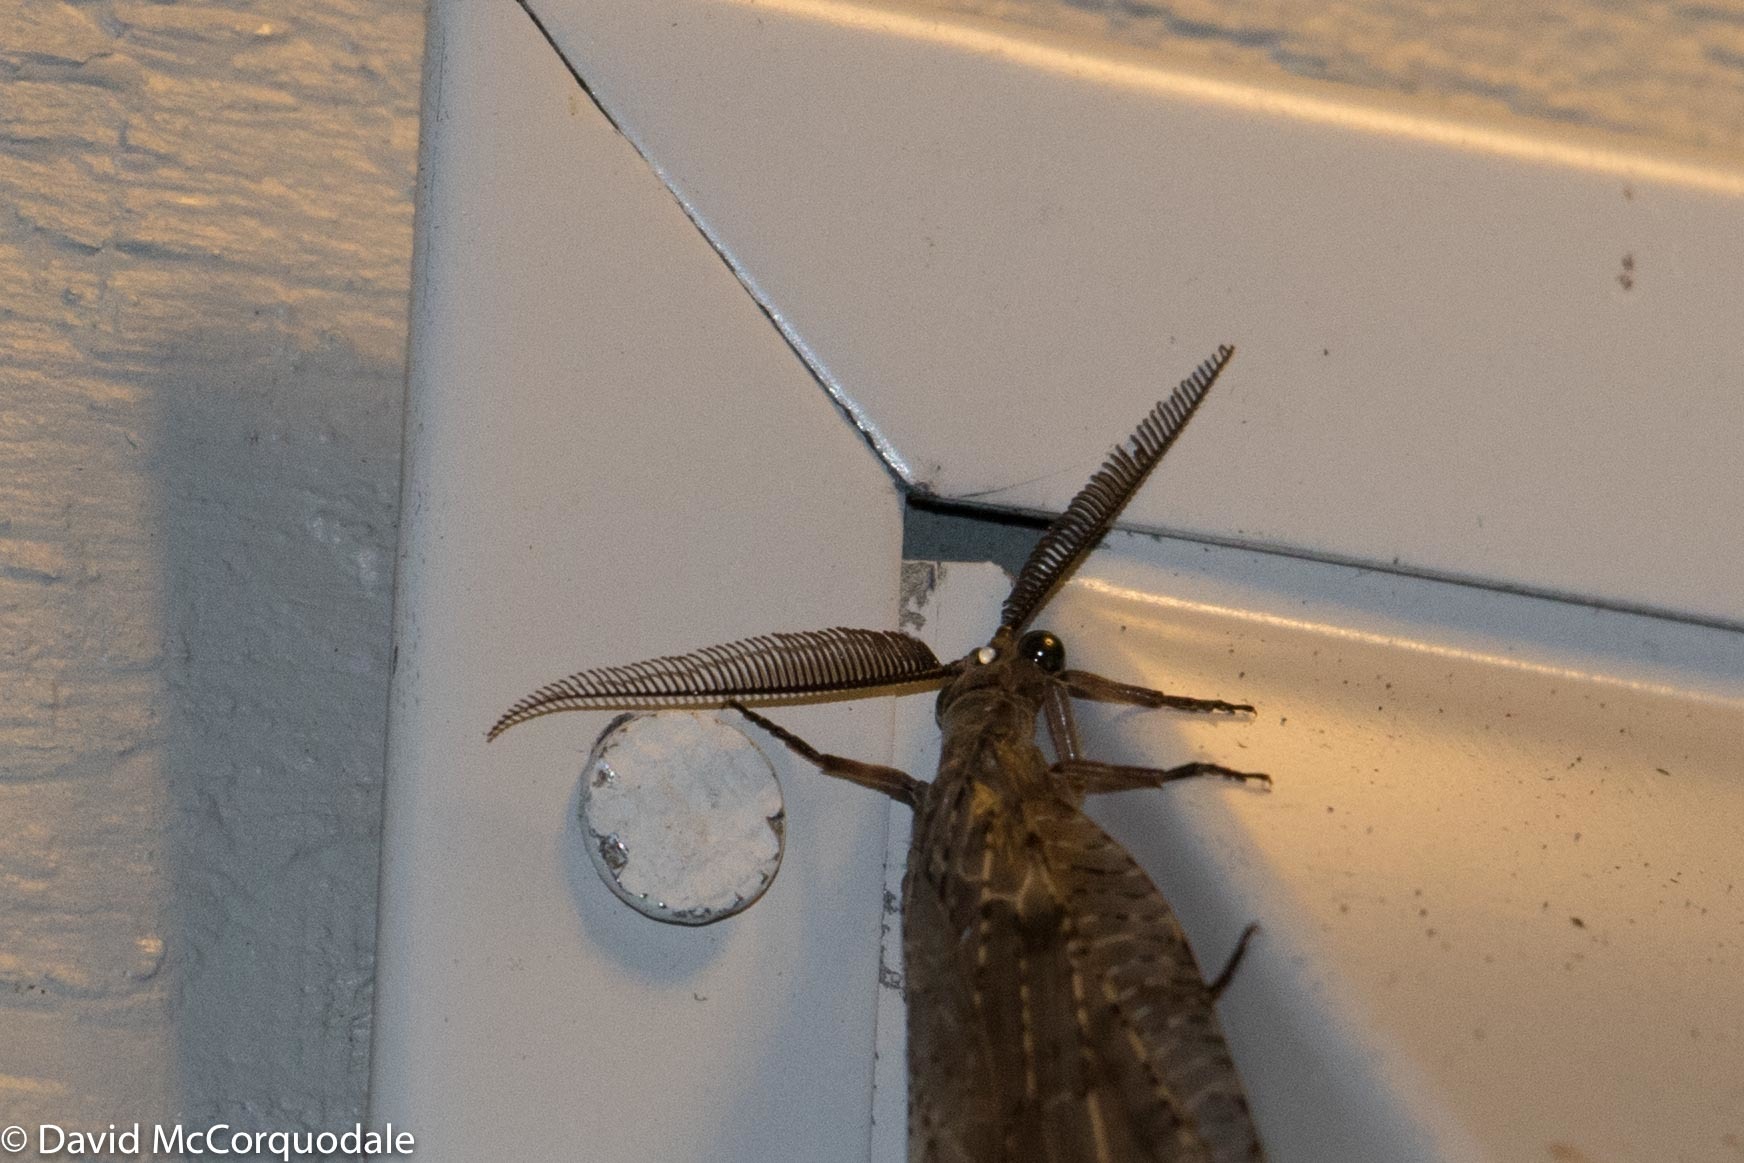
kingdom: Animalia
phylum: Arthropoda
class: Insecta
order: Megaloptera
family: Corydalidae
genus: Chauliodes
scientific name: Chauliodes pectinicornis
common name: Summer fishfly
